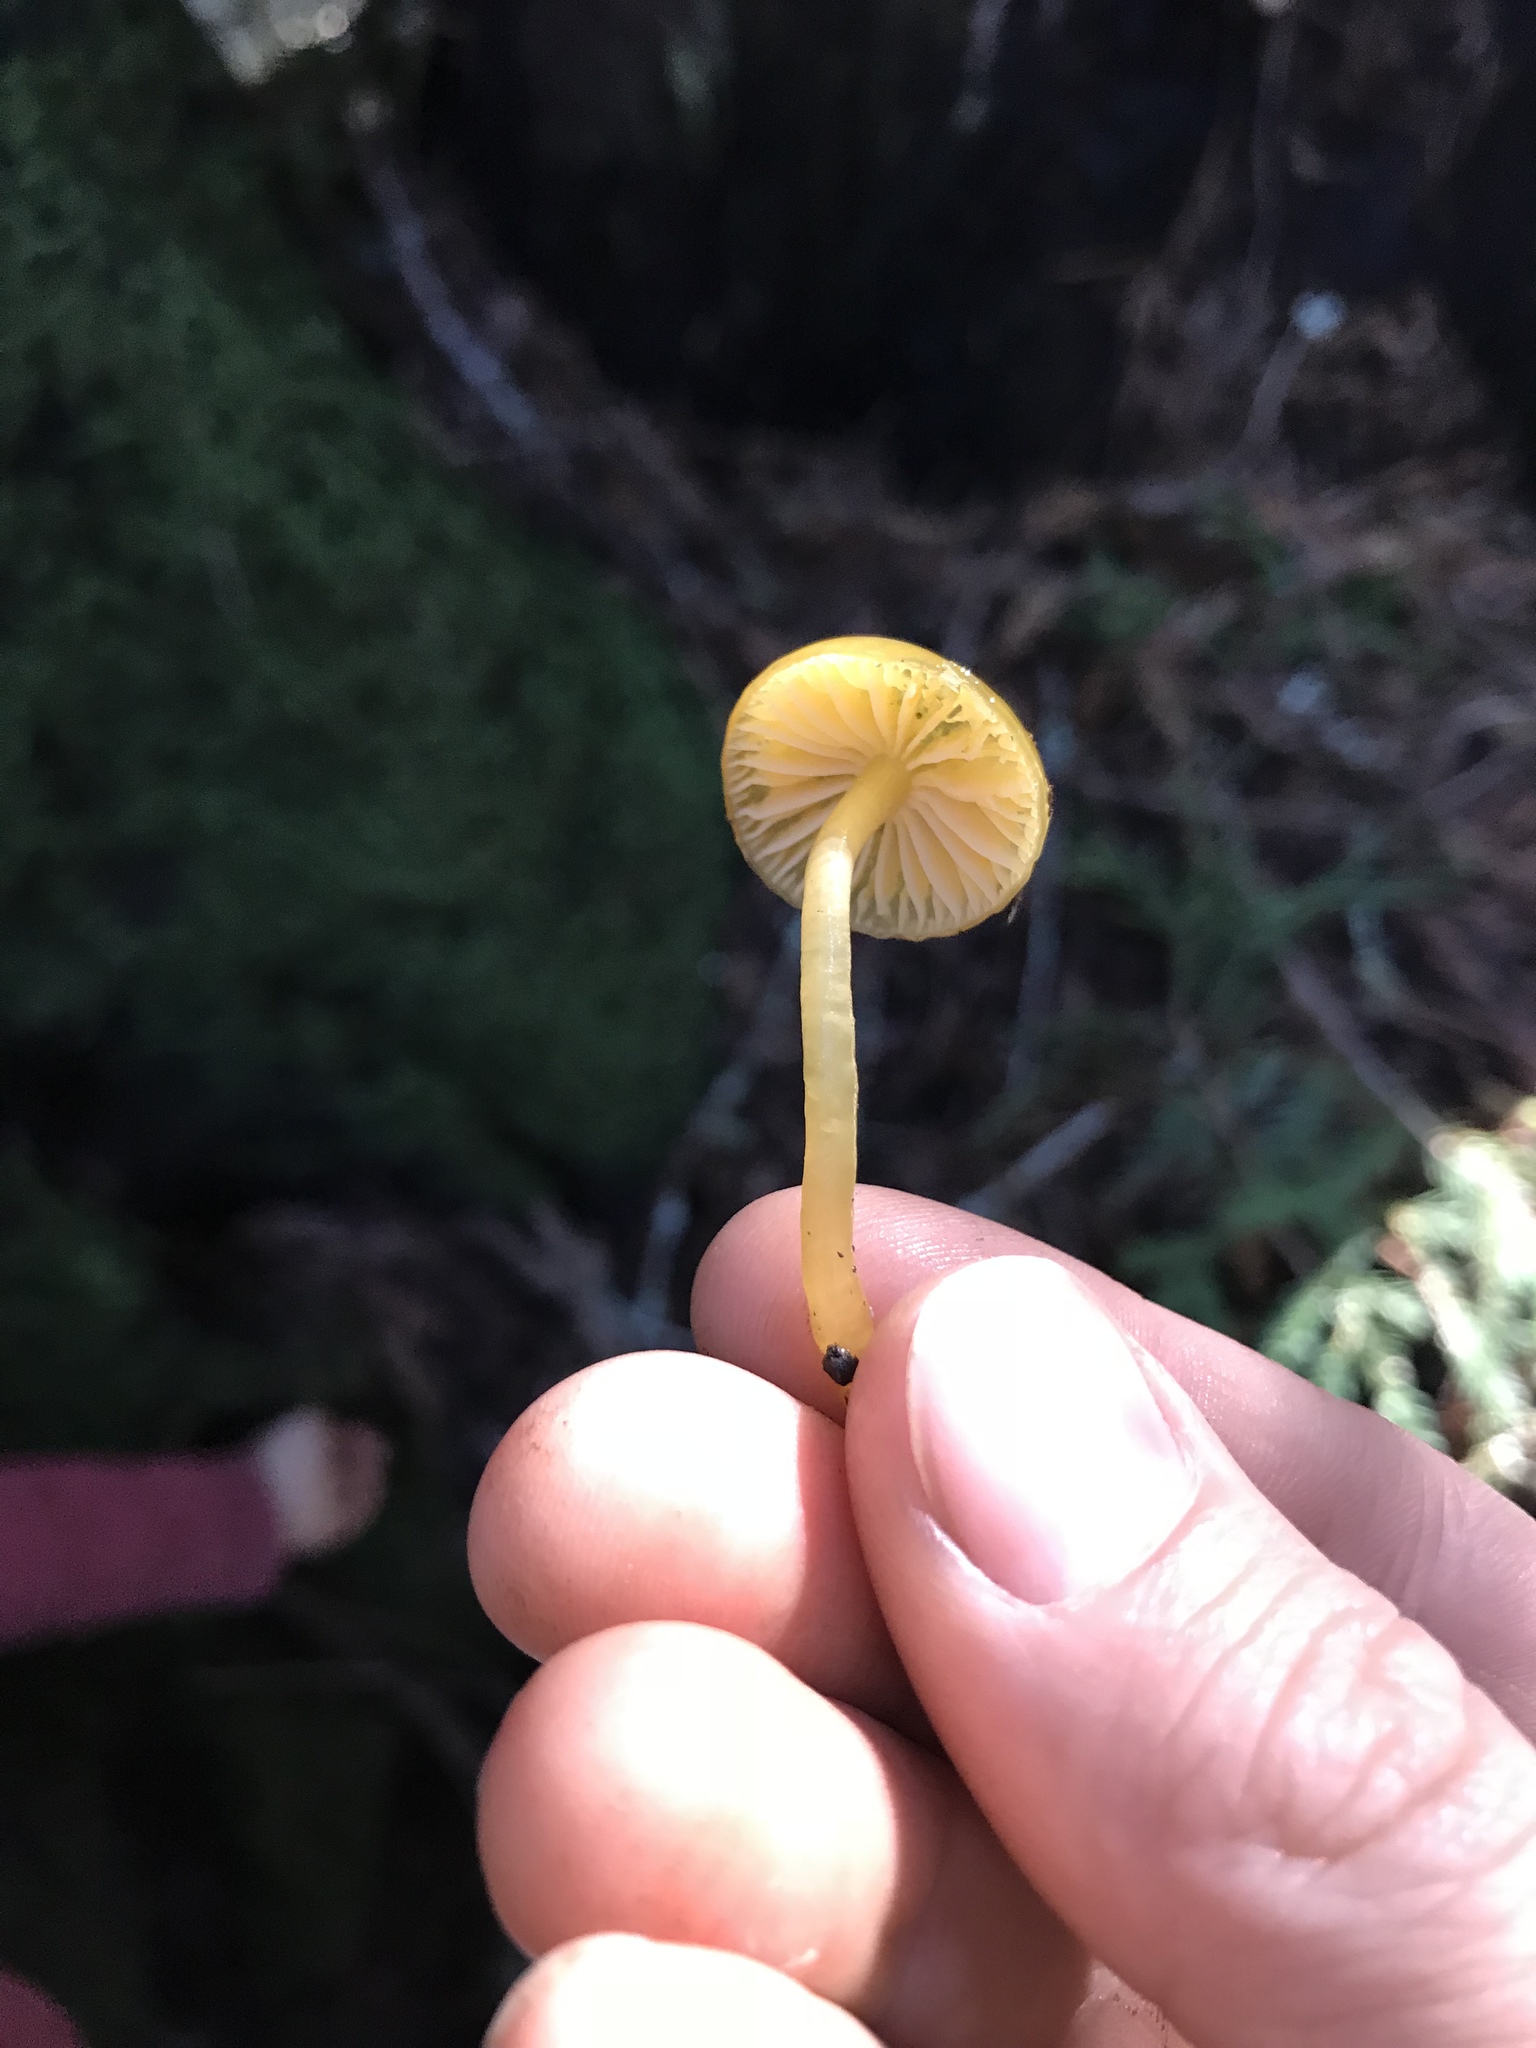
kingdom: Fungi
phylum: Basidiomycota
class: Agaricomycetes
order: Agaricales
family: Hygrophoraceae
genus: Gliophorus
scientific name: Gliophorus psittacinus
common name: Parrot wax-cap
